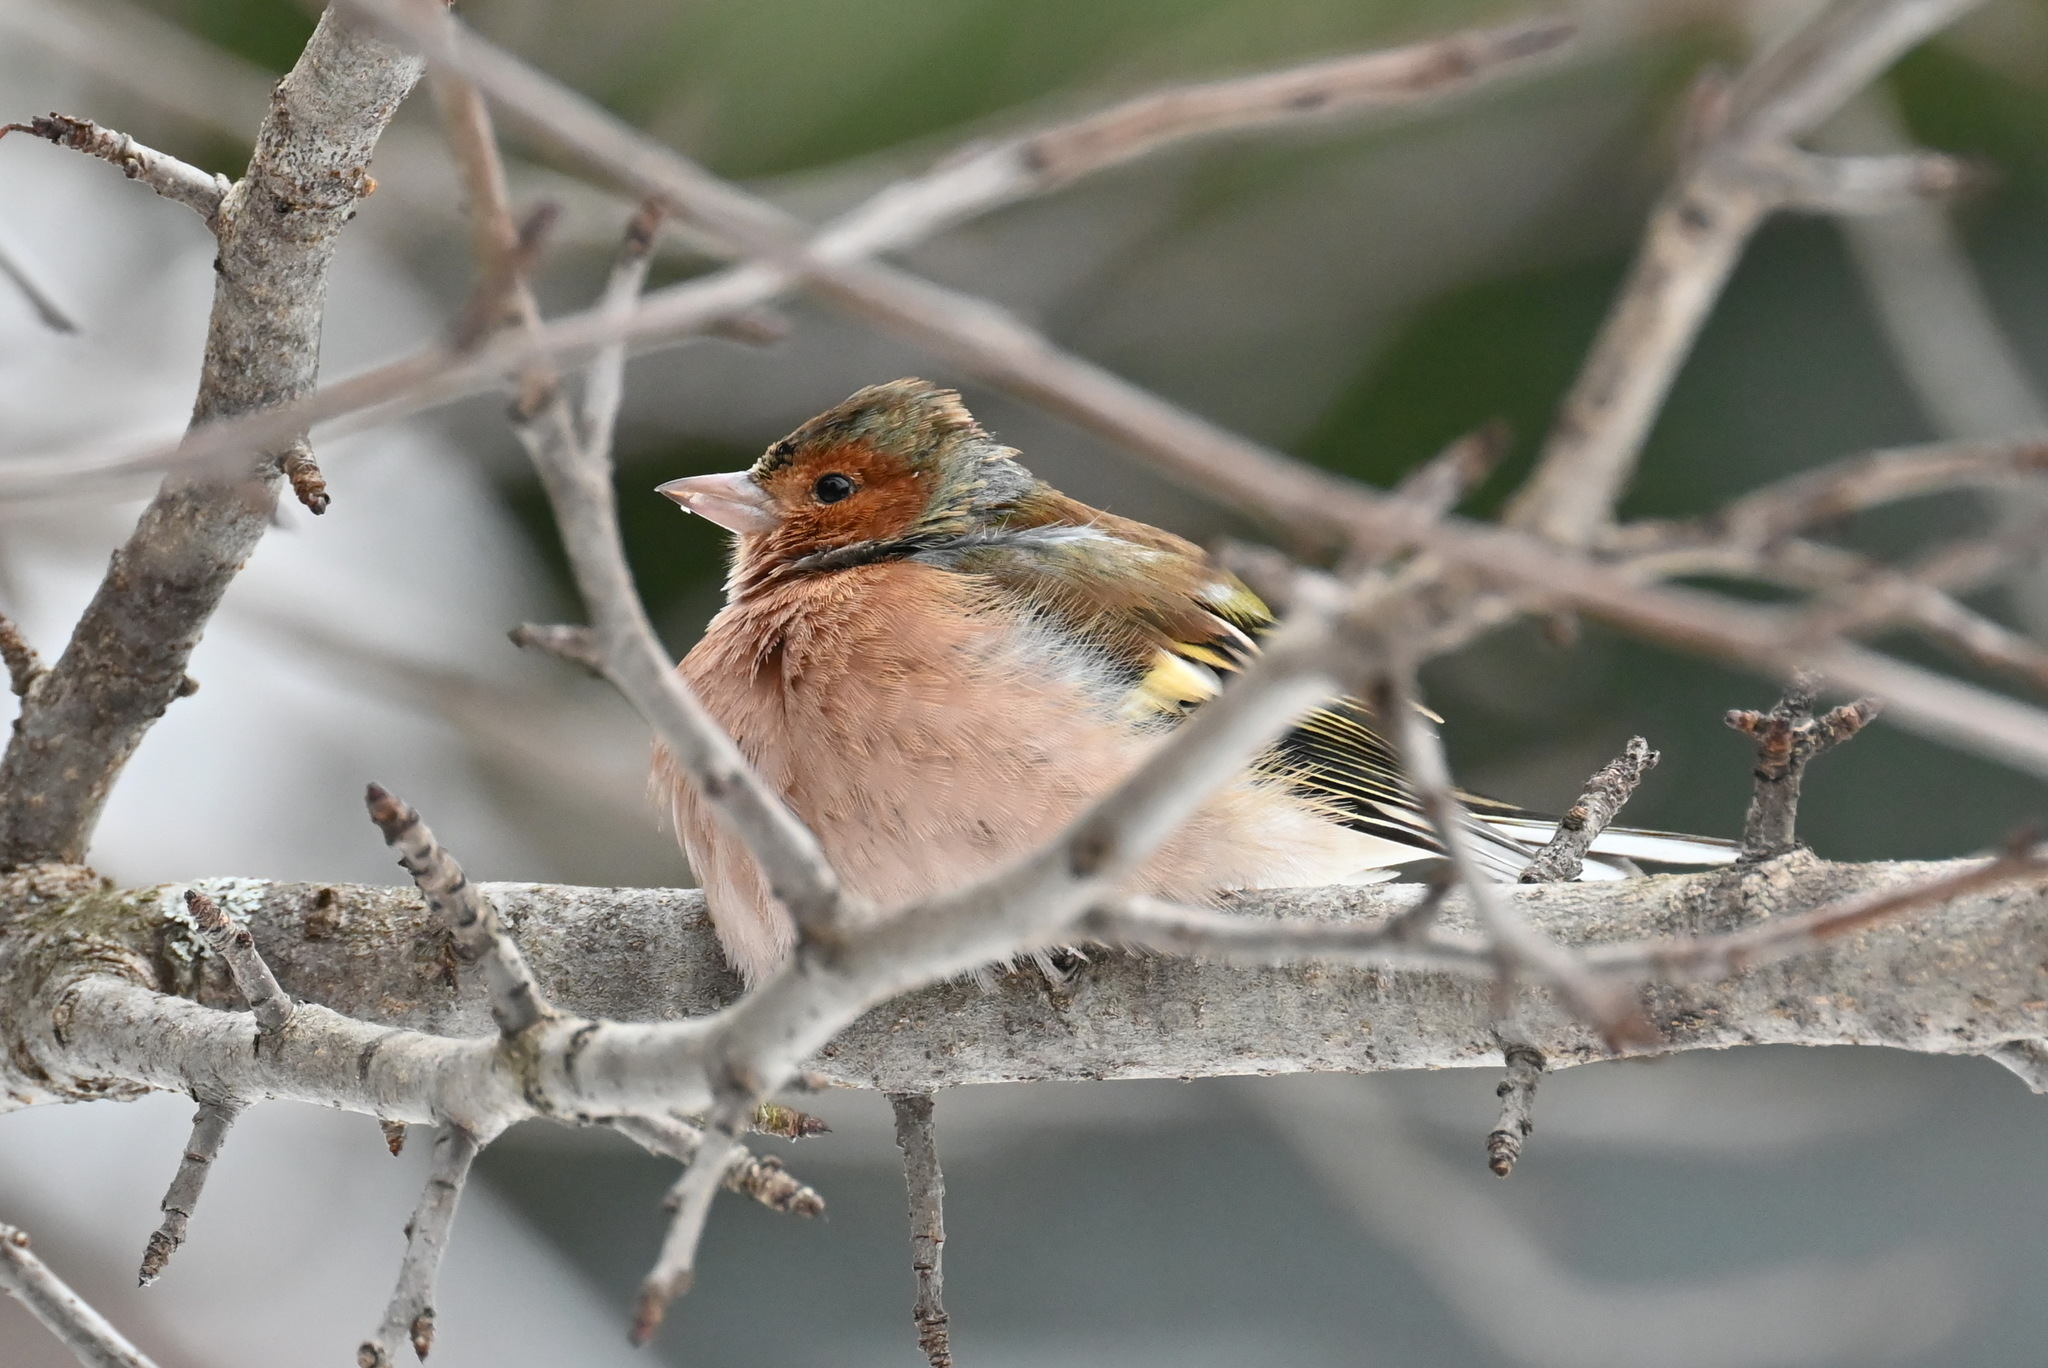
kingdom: Animalia
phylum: Chordata
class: Aves
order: Passeriformes
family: Fringillidae
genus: Fringilla
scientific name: Fringilla coelebs
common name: Common chaffinch
